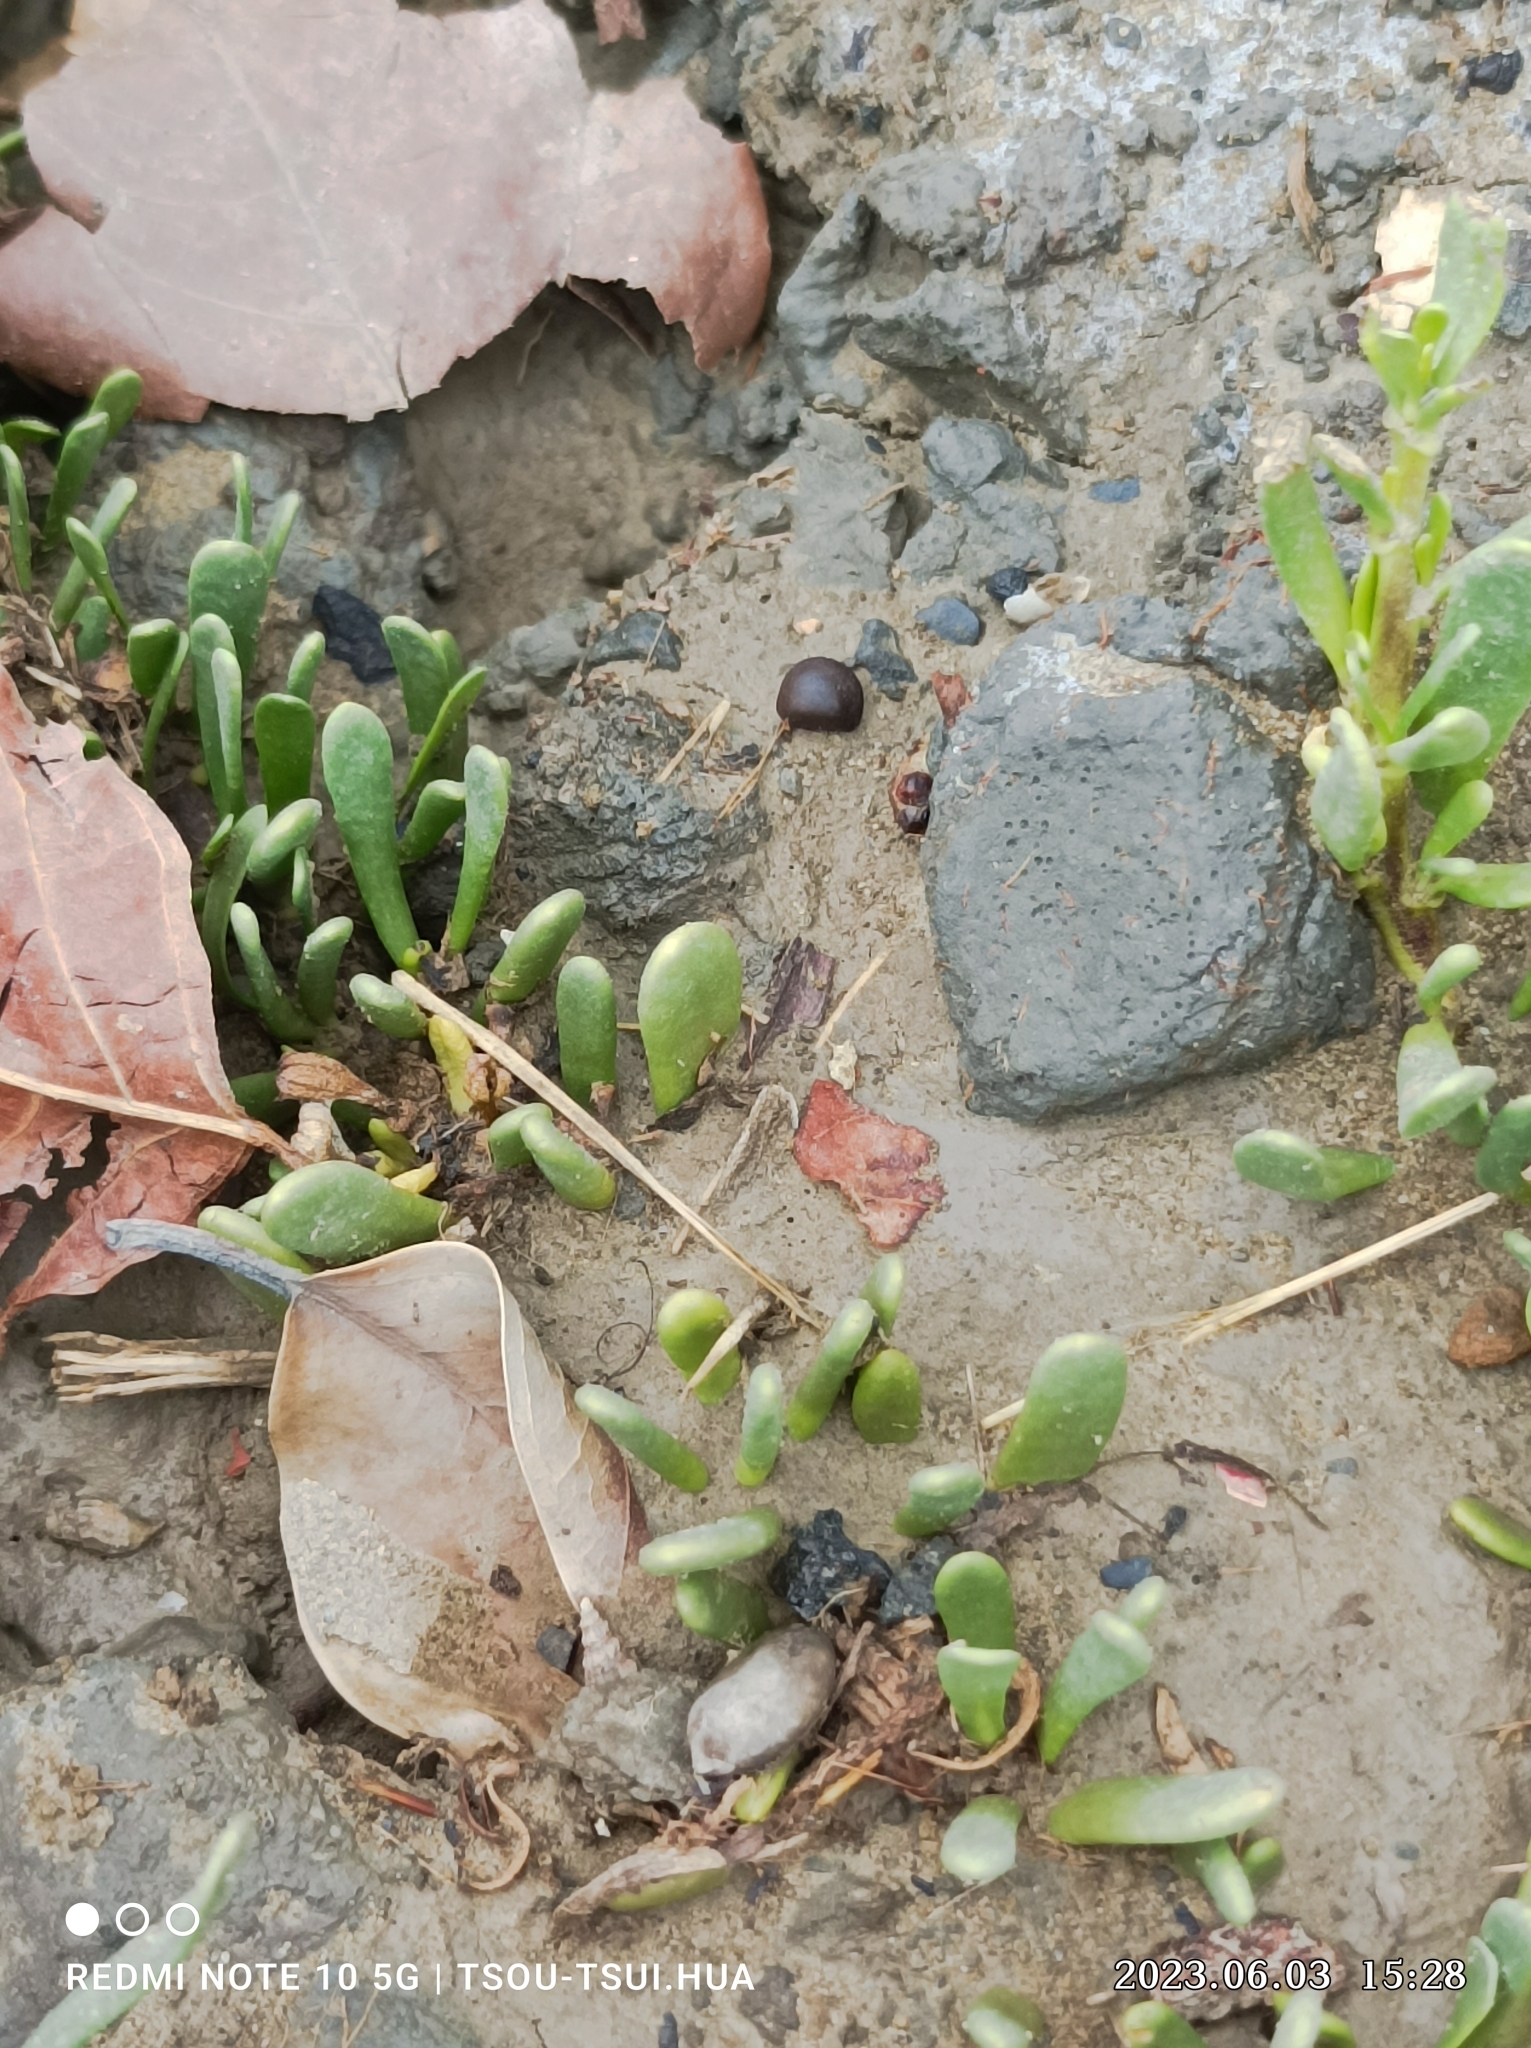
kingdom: Plantae
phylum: Tracheophyta
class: Magnoliopsida
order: Caryophyllales
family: Aizoaceae
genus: Sesuvium
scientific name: Sesuvium portulacastrum
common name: Sea-purslane
